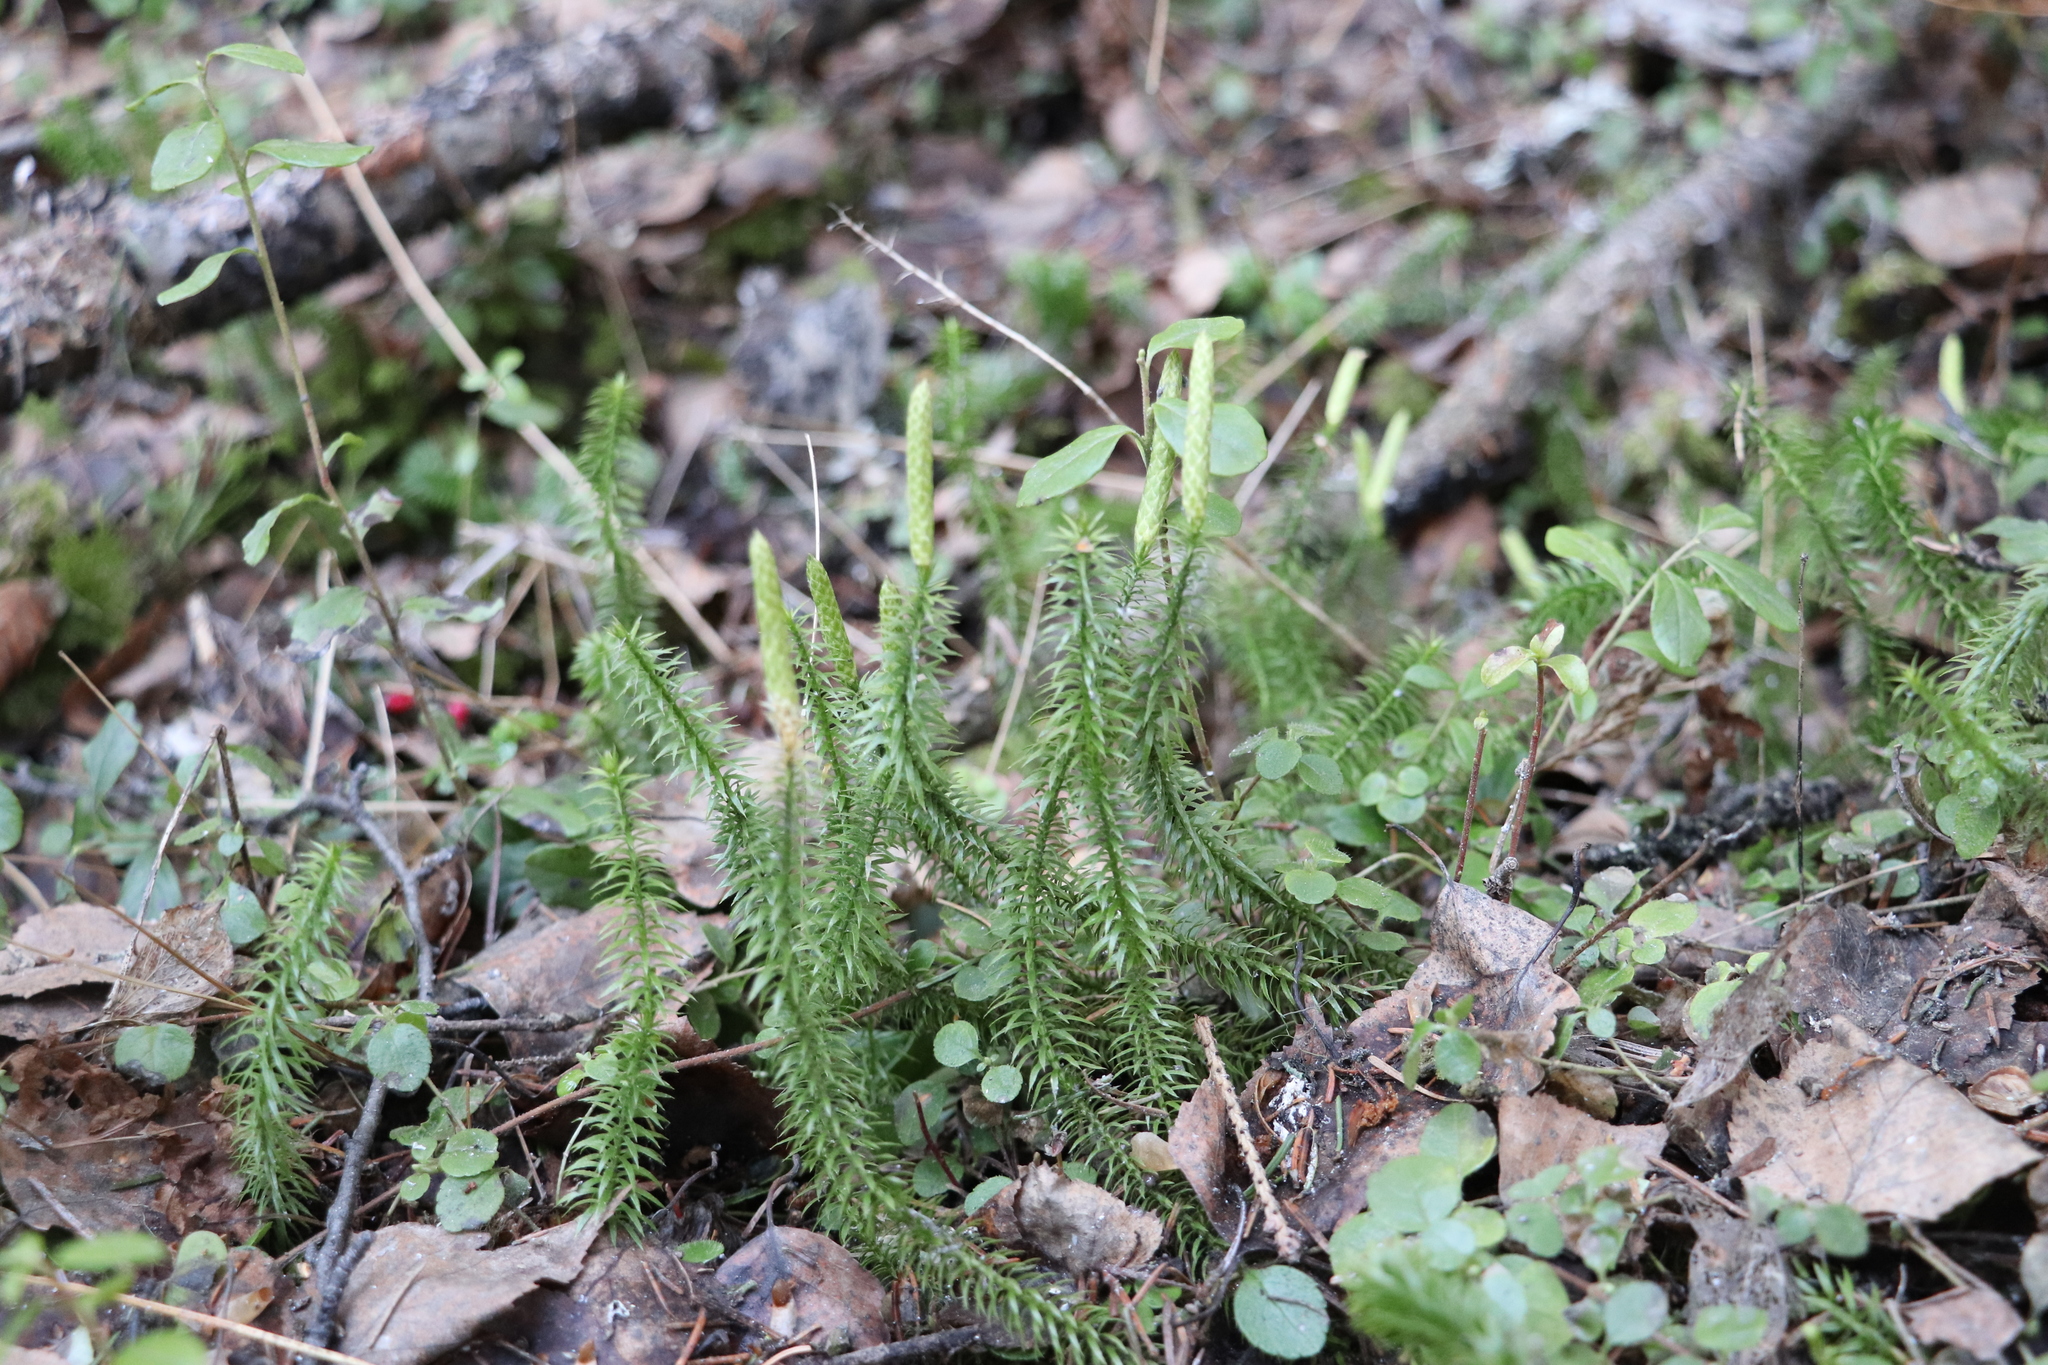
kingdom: Plantae
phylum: Tracheophyta
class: Lycopodiopsida
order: Lycopodiales
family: Lycopodiaceae
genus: Lycopodium
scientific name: Lycopodium clavatum
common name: Stag's-horn clubmoss
